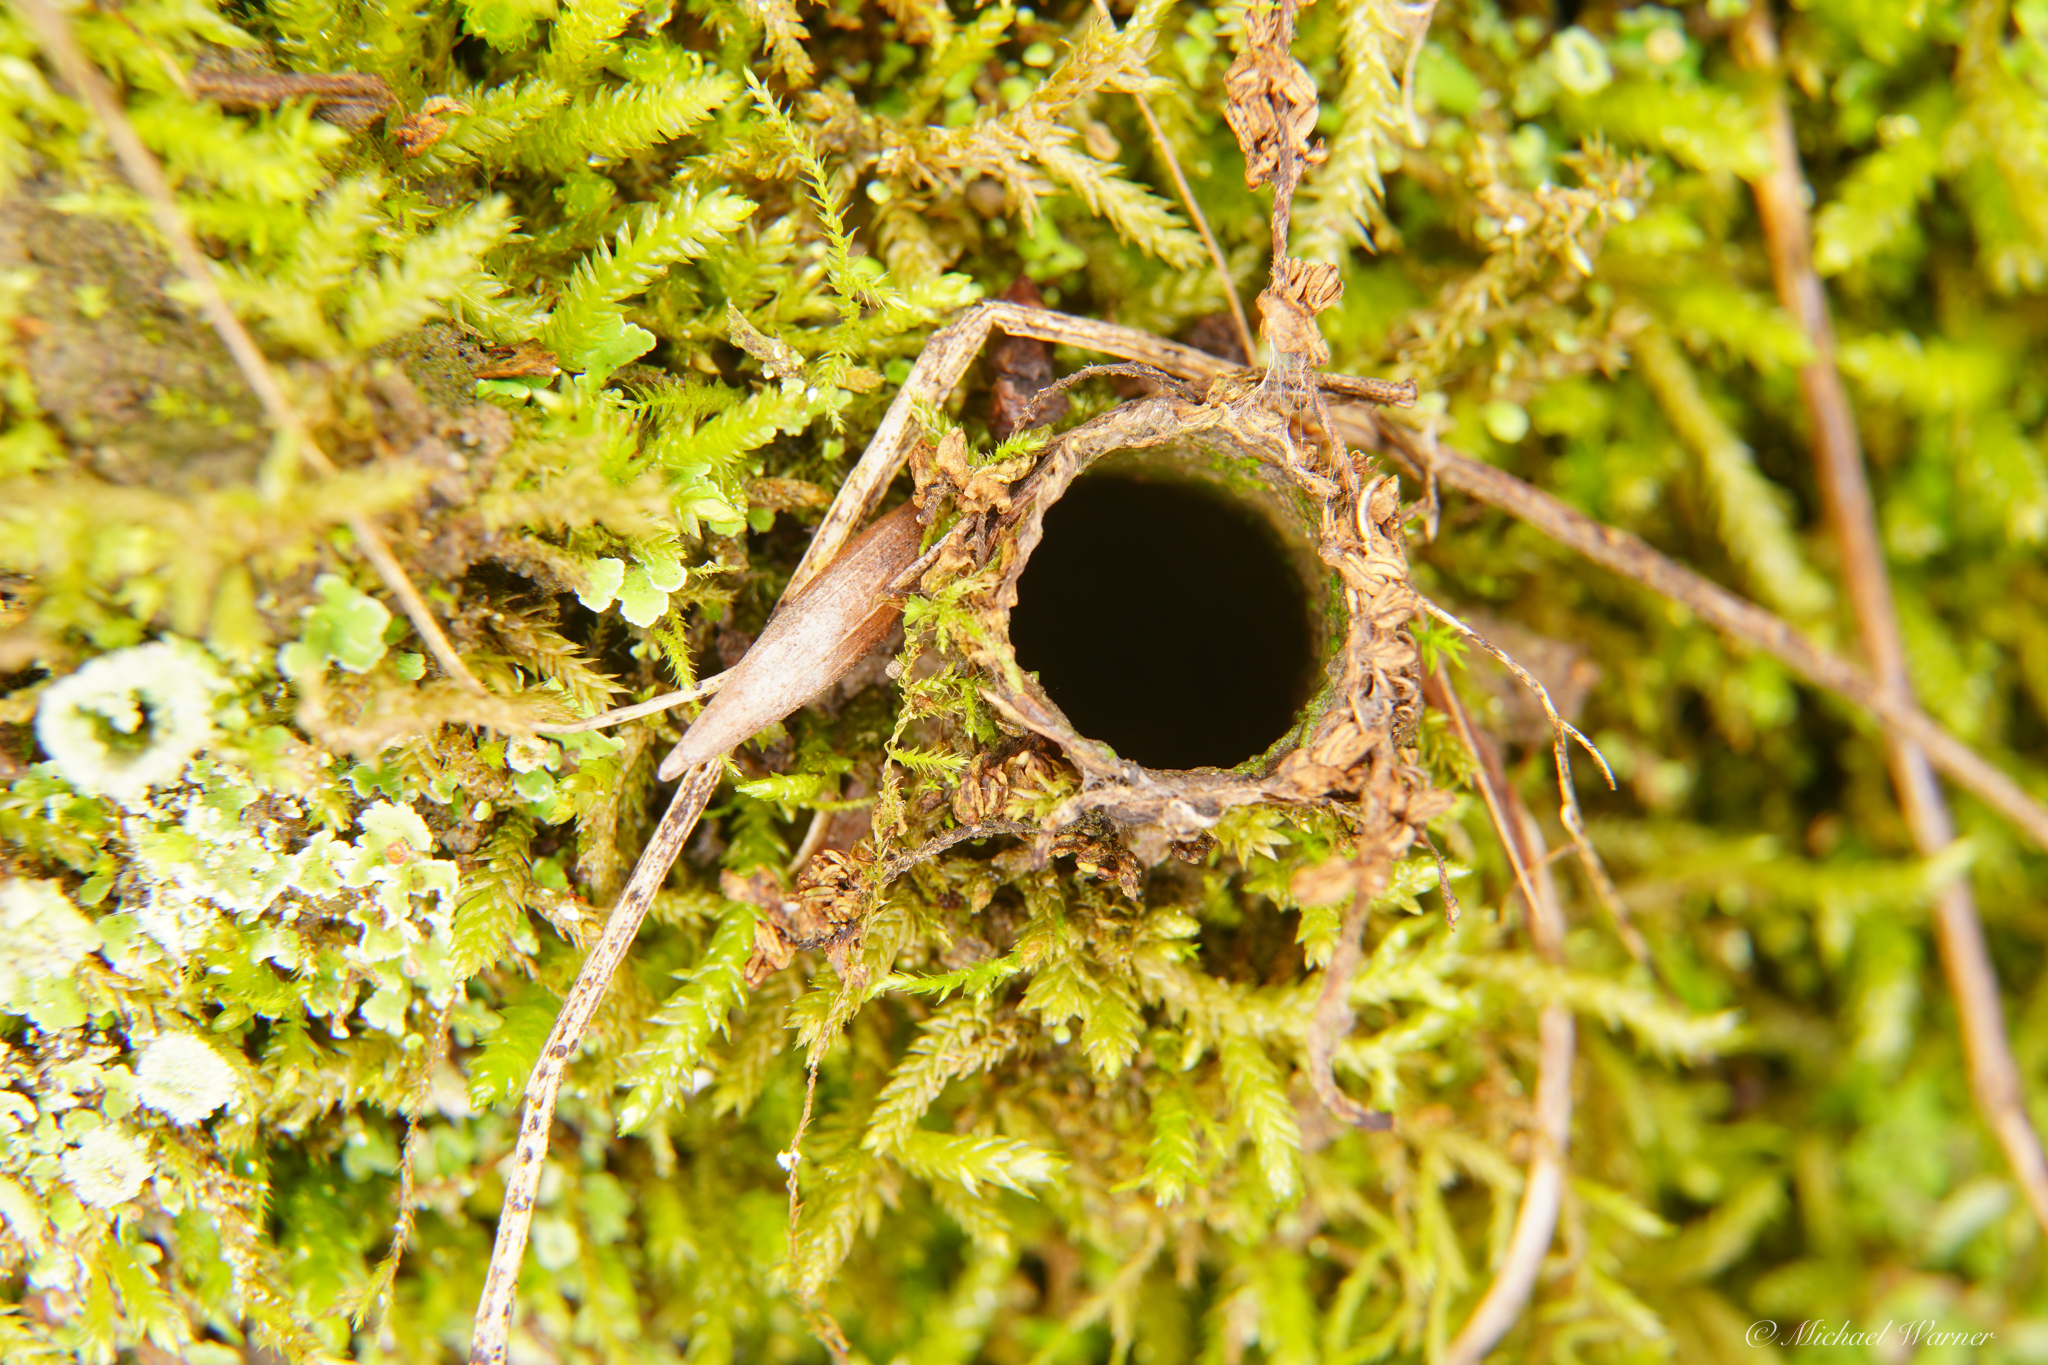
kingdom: Animalia
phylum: Arthropoda
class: Arachnida
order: Araneae
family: Antrodiaetidae
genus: Atypoides
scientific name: Atypoides riversi
